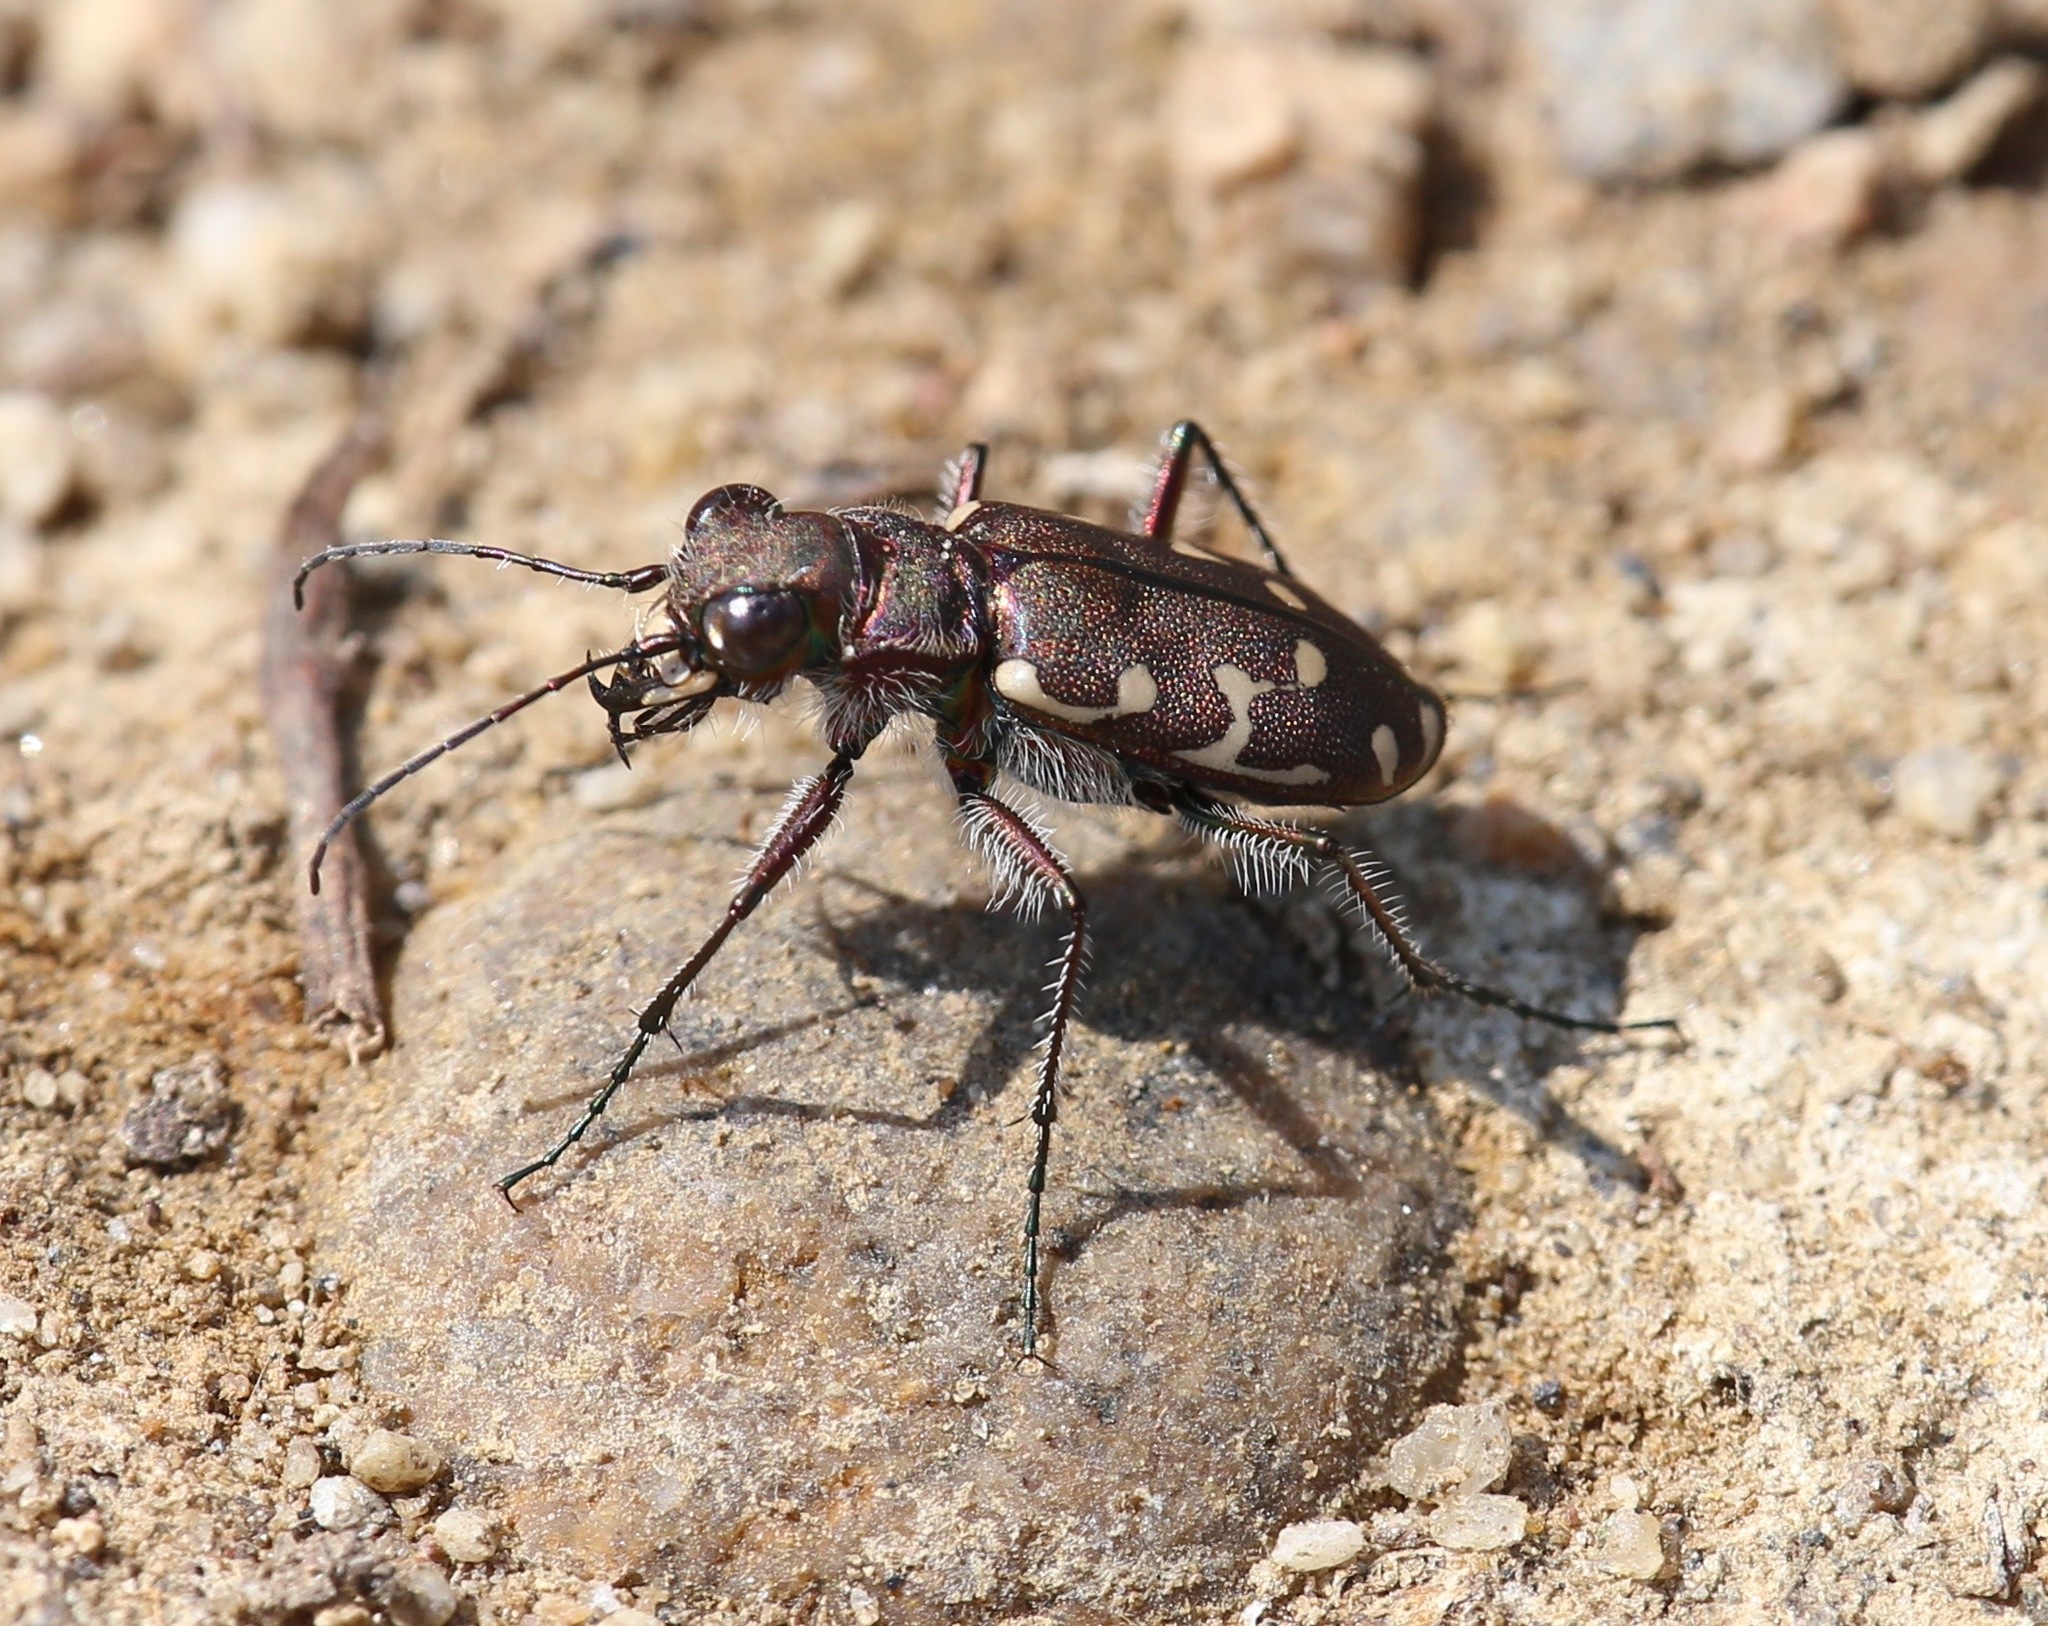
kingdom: Animalia
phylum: Arthropoda
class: Insecta
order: Coleoptera
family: Carabidae
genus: Cicindela
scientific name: Cicindela duodecimguttata
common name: Twelve-spotted tiger beetle
